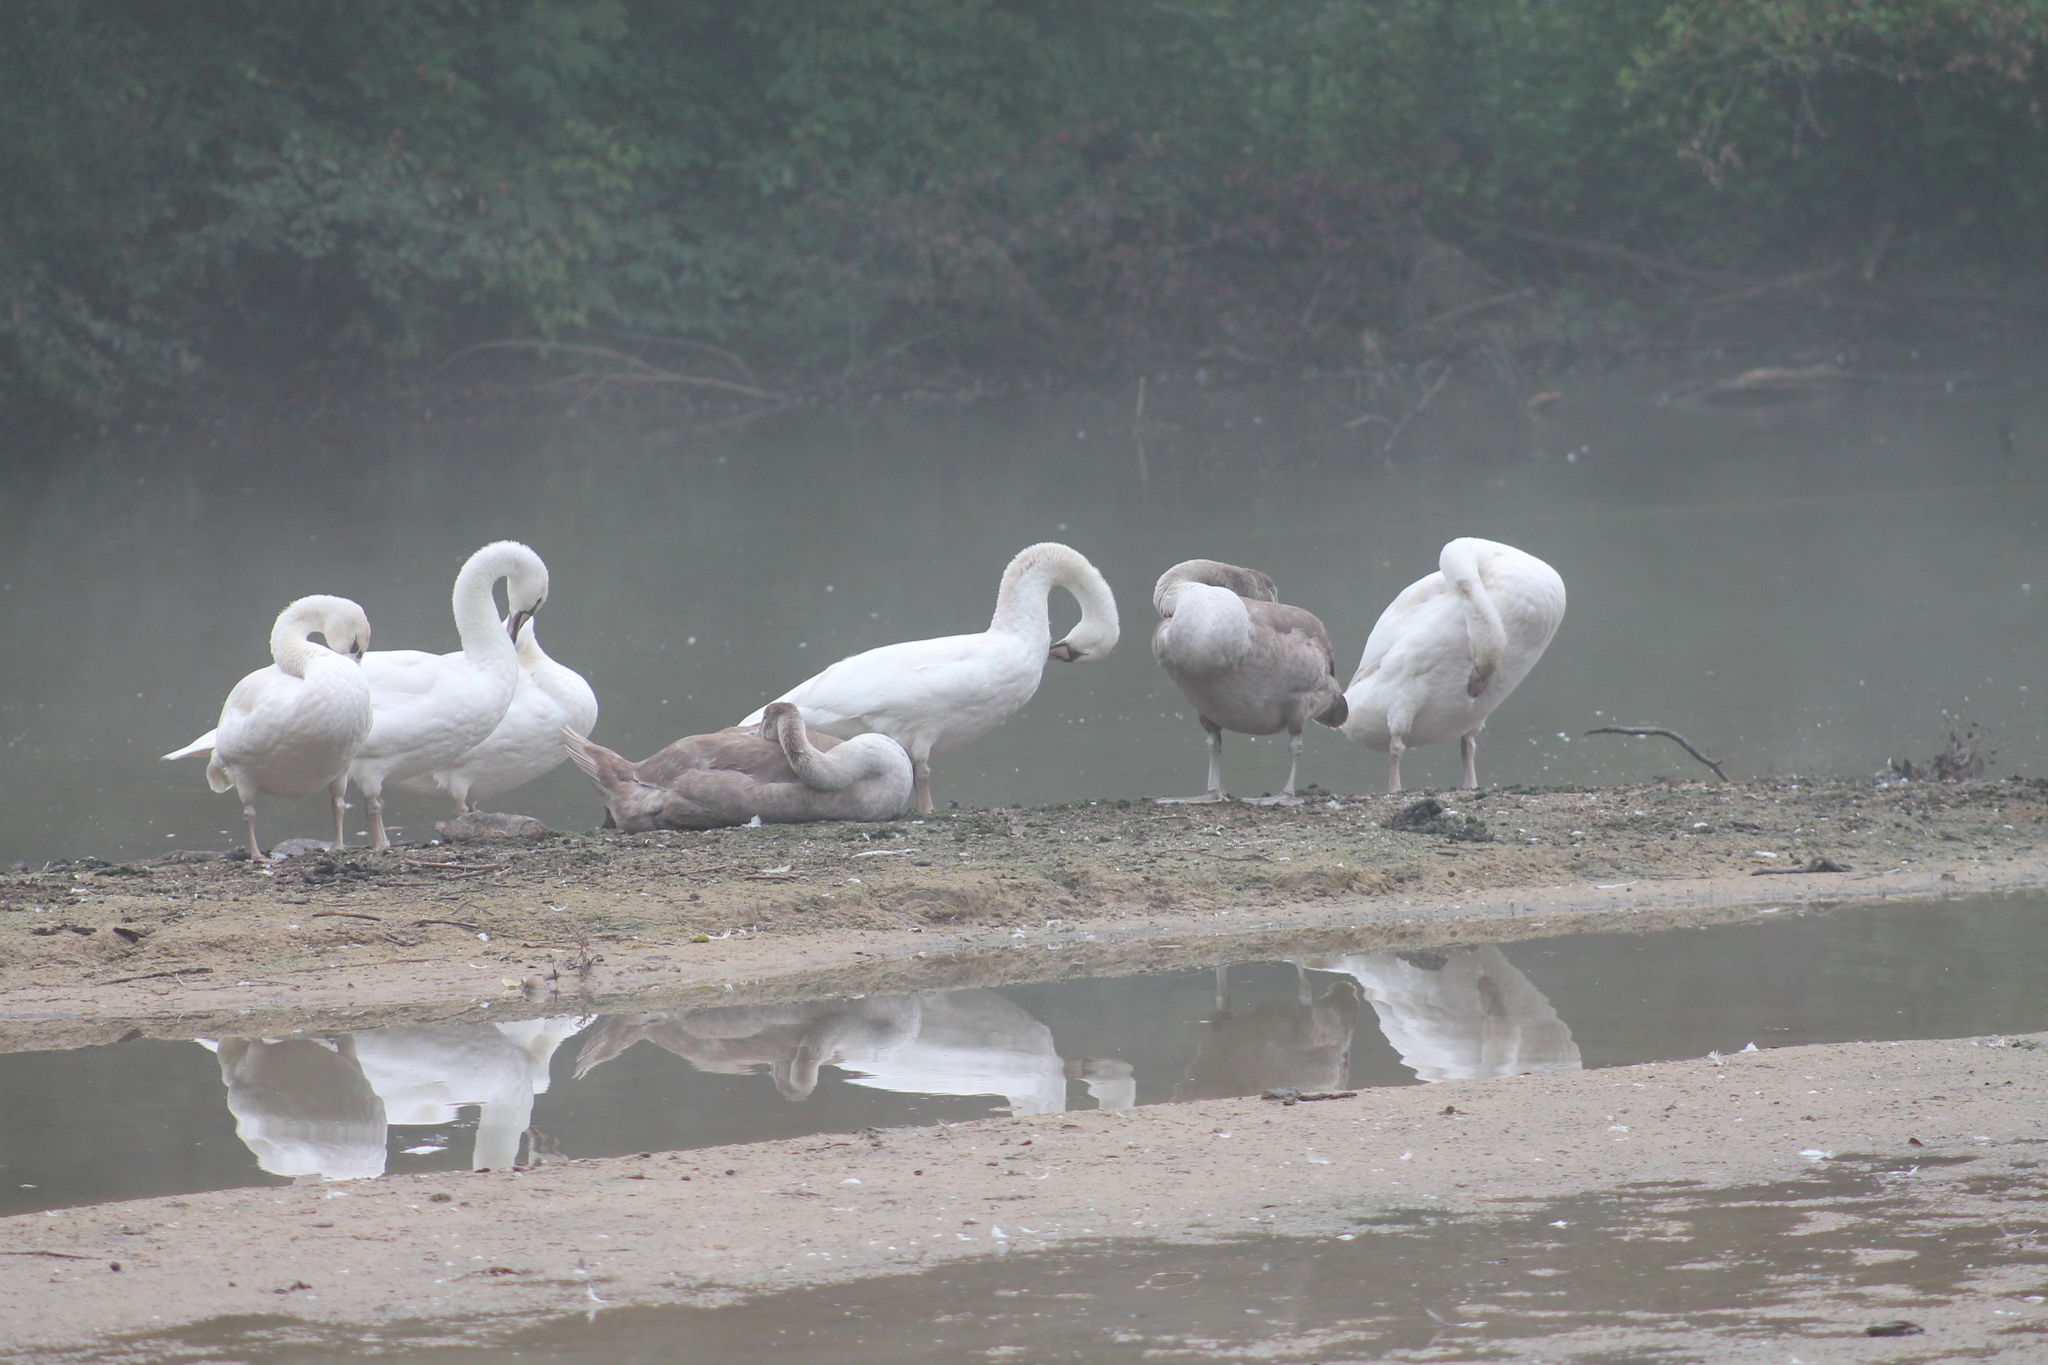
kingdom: Animalia
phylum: Chordata
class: Aves
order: Anseriformes
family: Anatidae
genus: Cygnus
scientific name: Cygnus olor
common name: Mute swan
